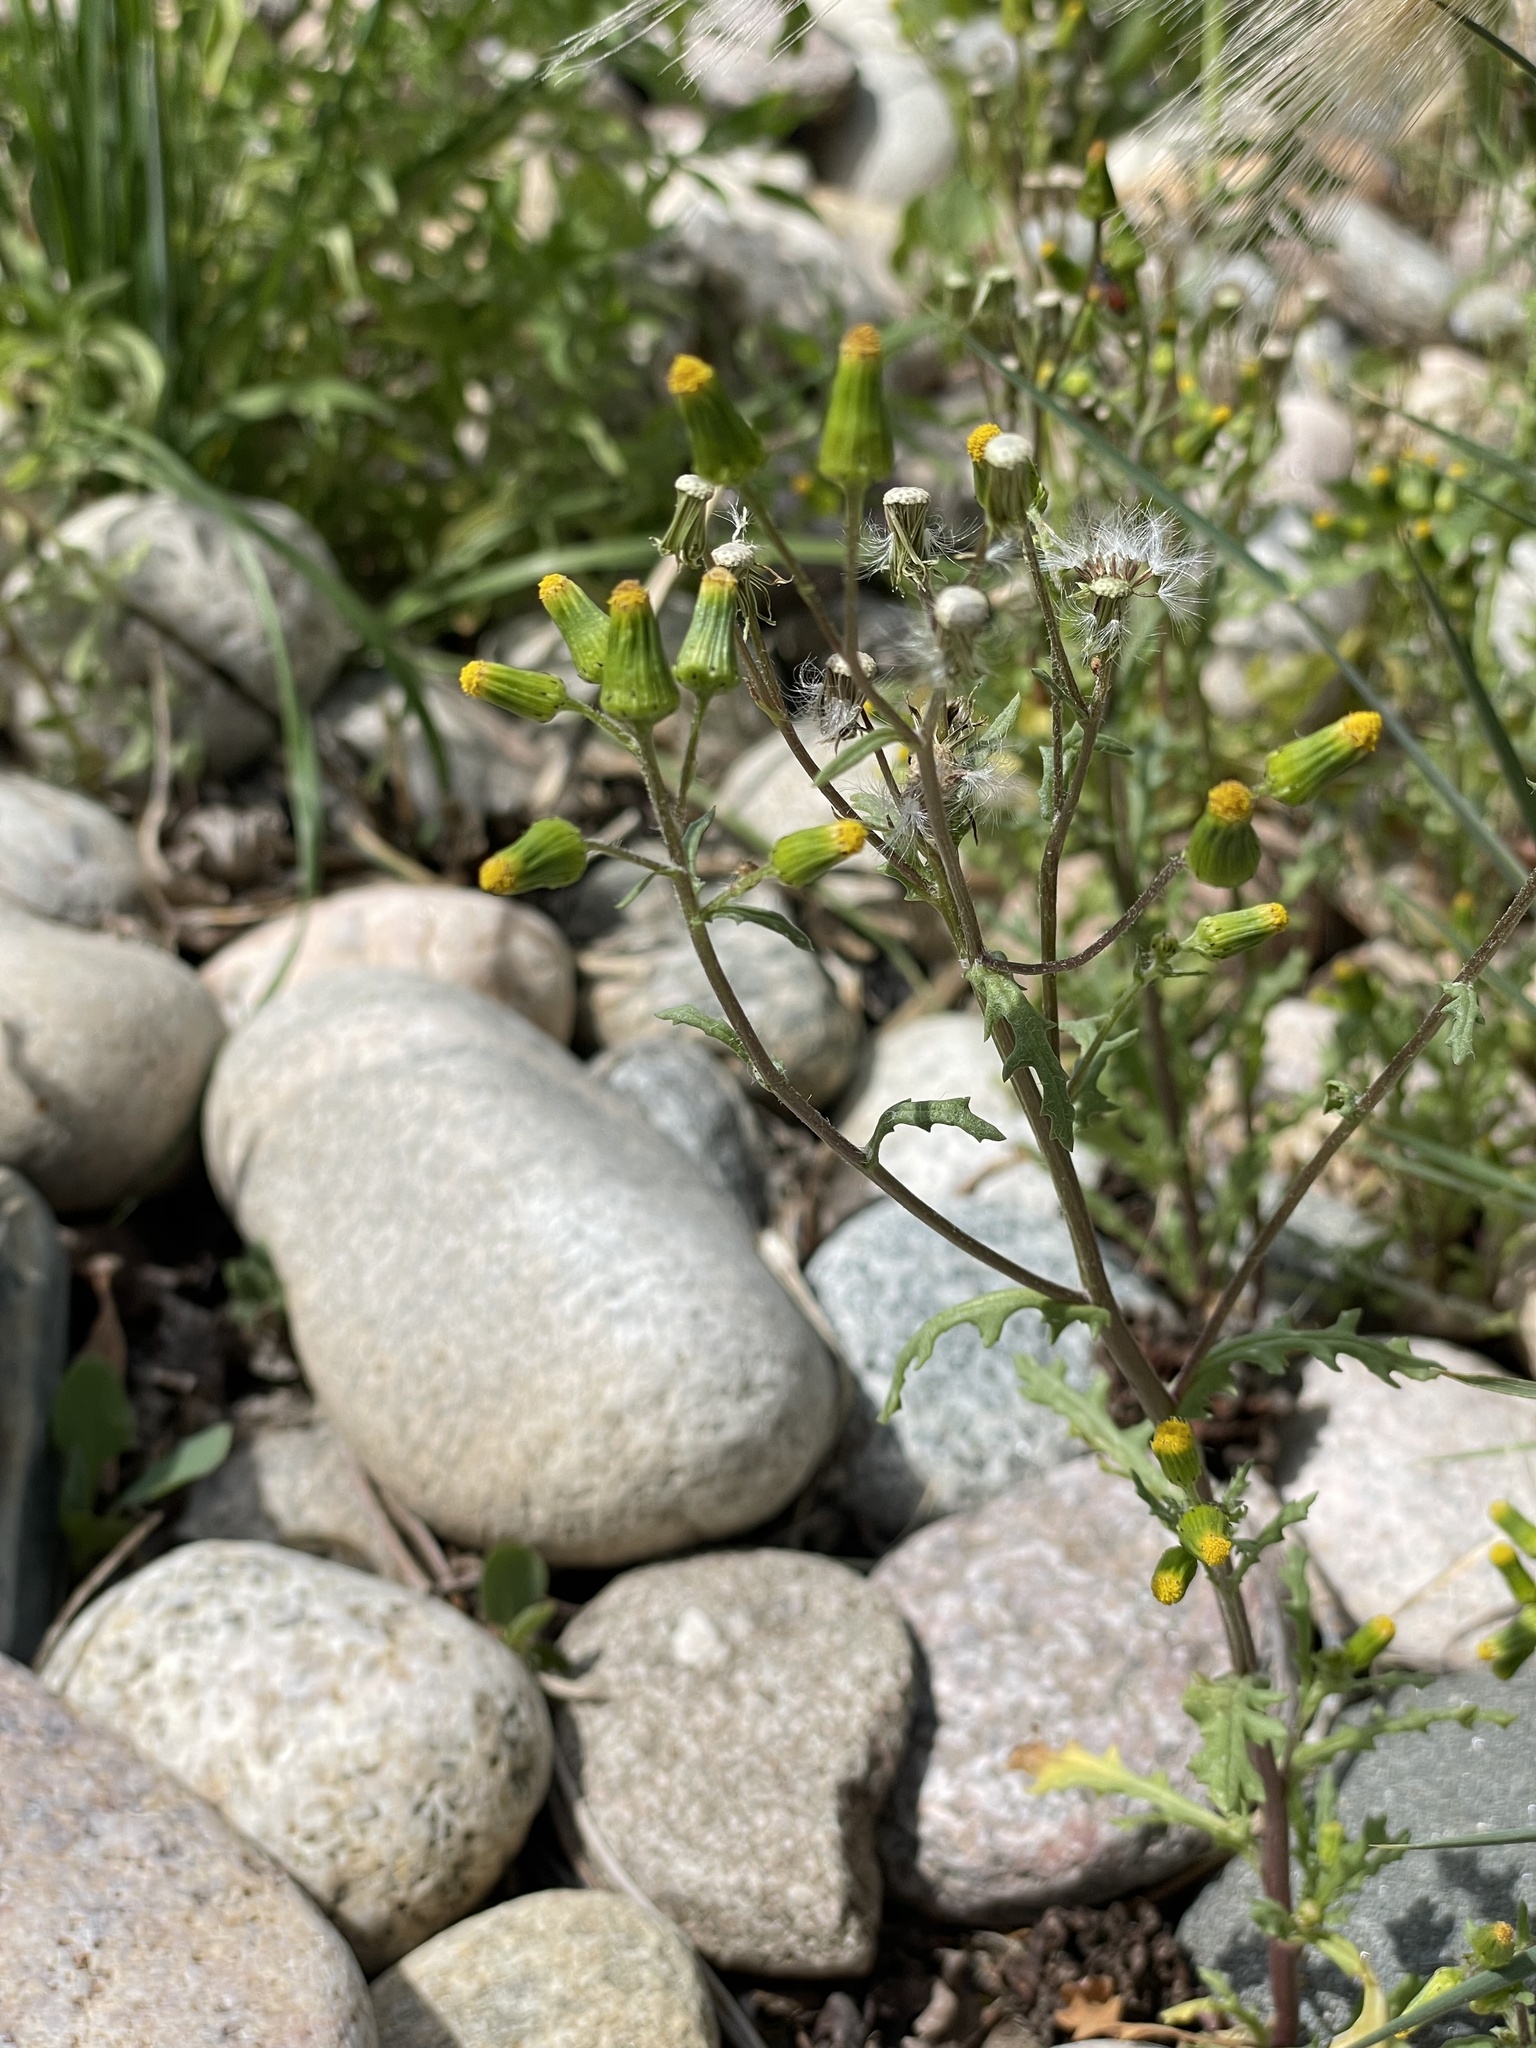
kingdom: Plantae
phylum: Tracheophyta
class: Magnoliopsida
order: Asterales
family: Asteraceae
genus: Senecio
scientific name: Senecio vulgaris
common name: Old-man-in-the-spring
